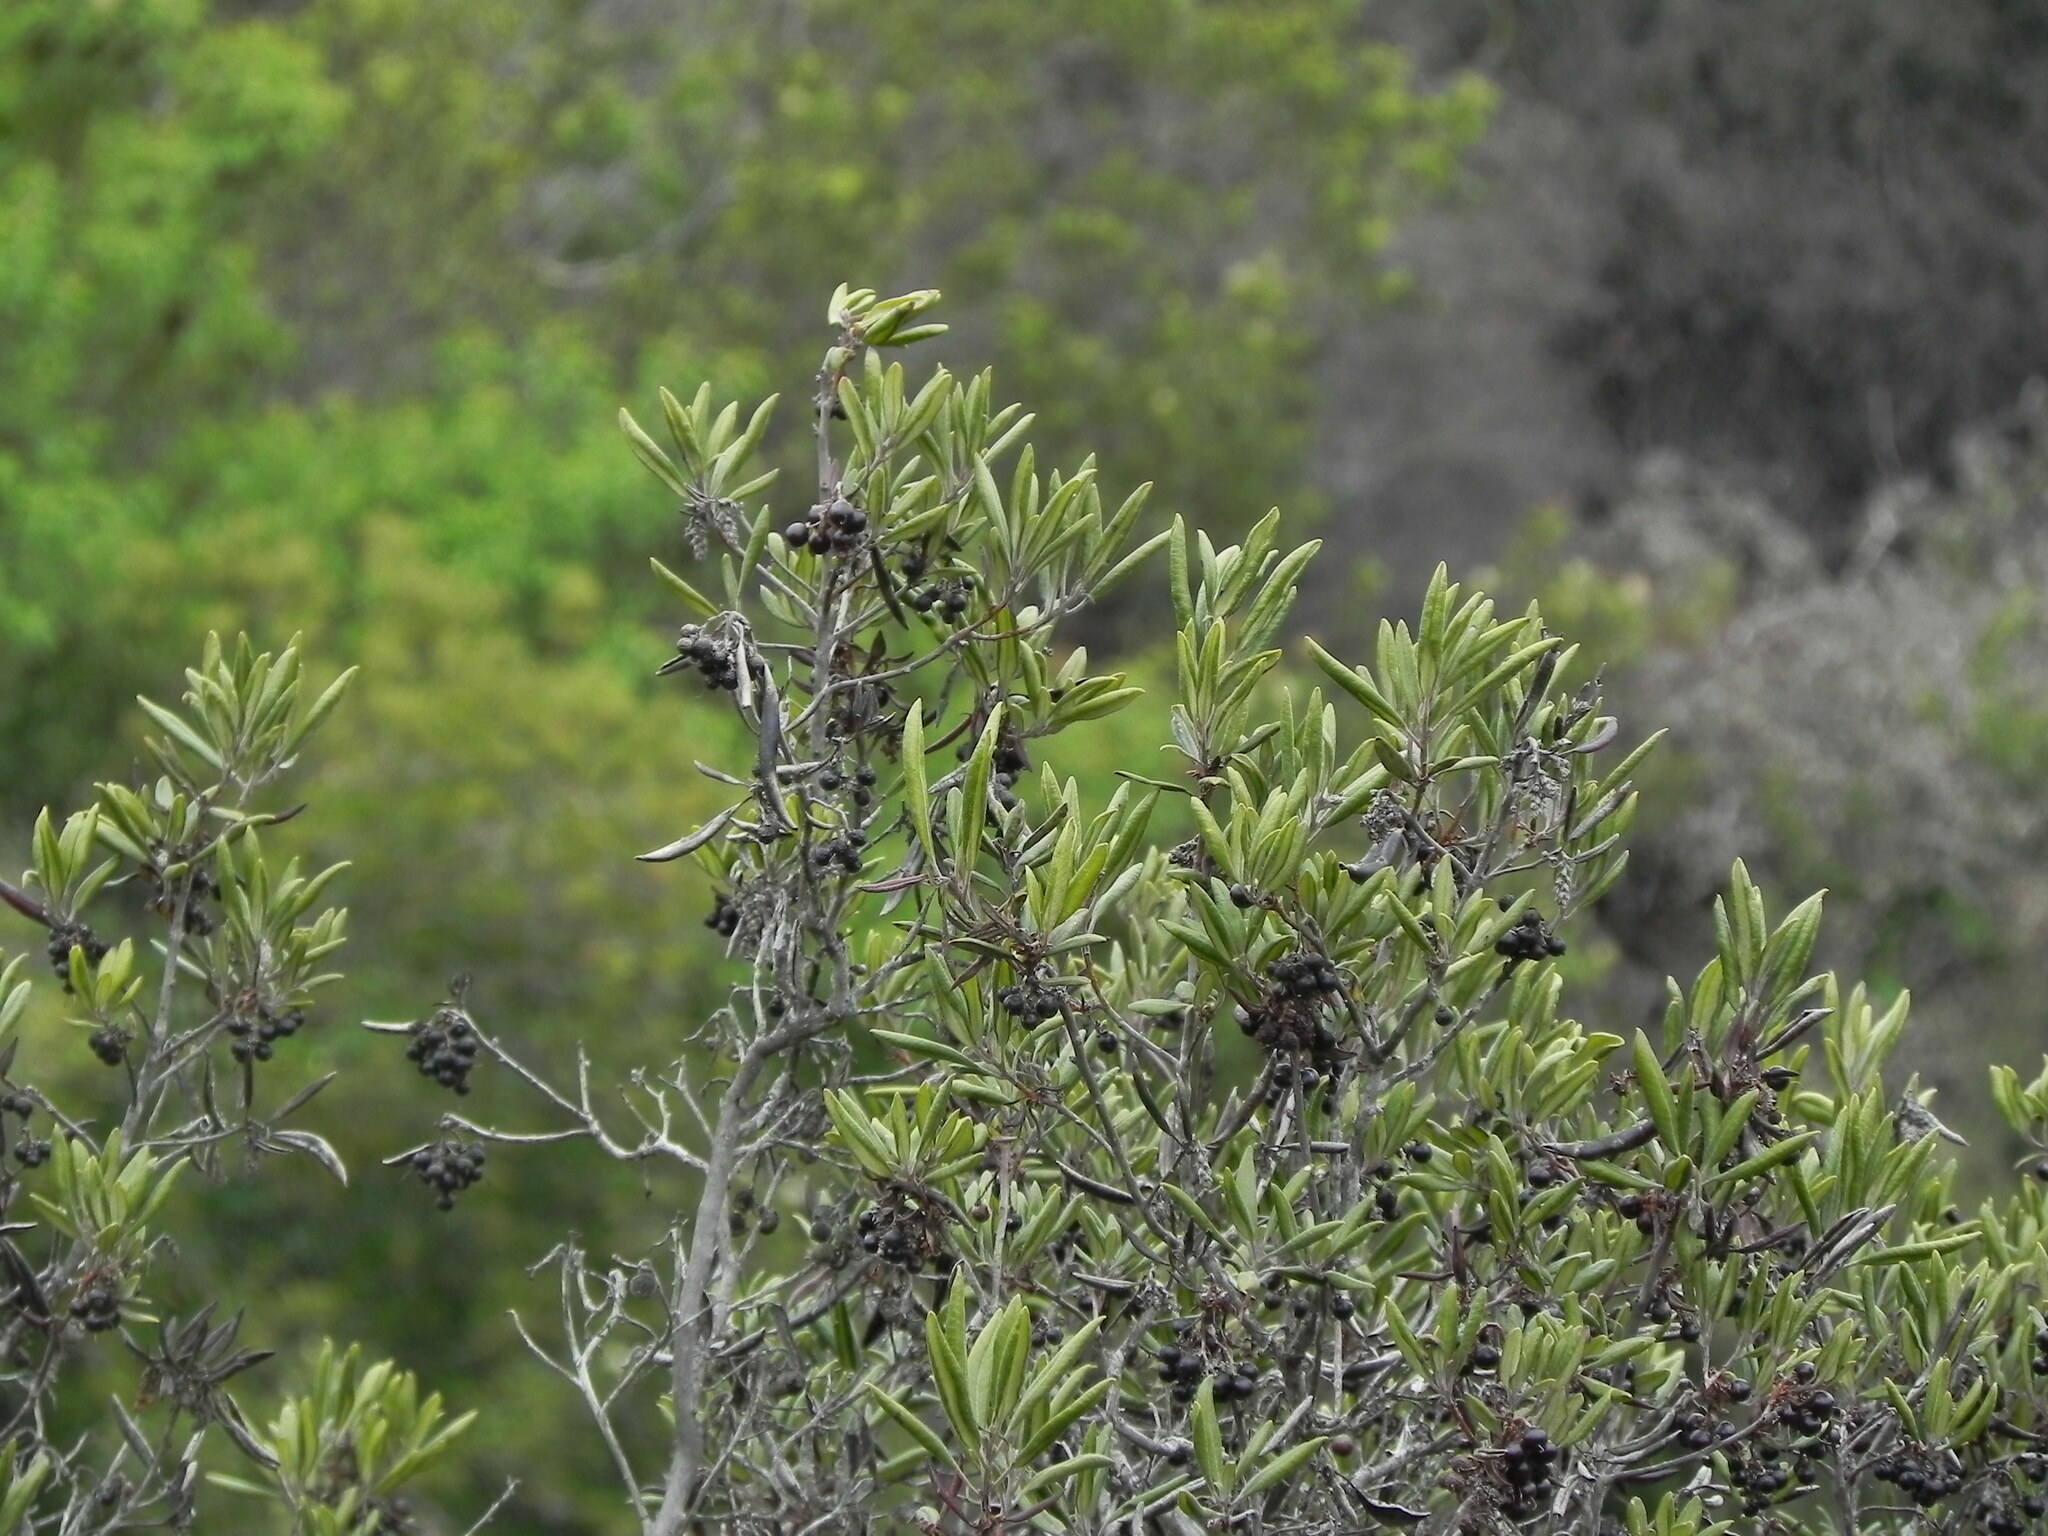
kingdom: Plantae
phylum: Tracheophyta
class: Magnoliopsida
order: Ericales
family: Ericaceae
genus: Arctostaphylos
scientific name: Arctostaphylos bicolor
